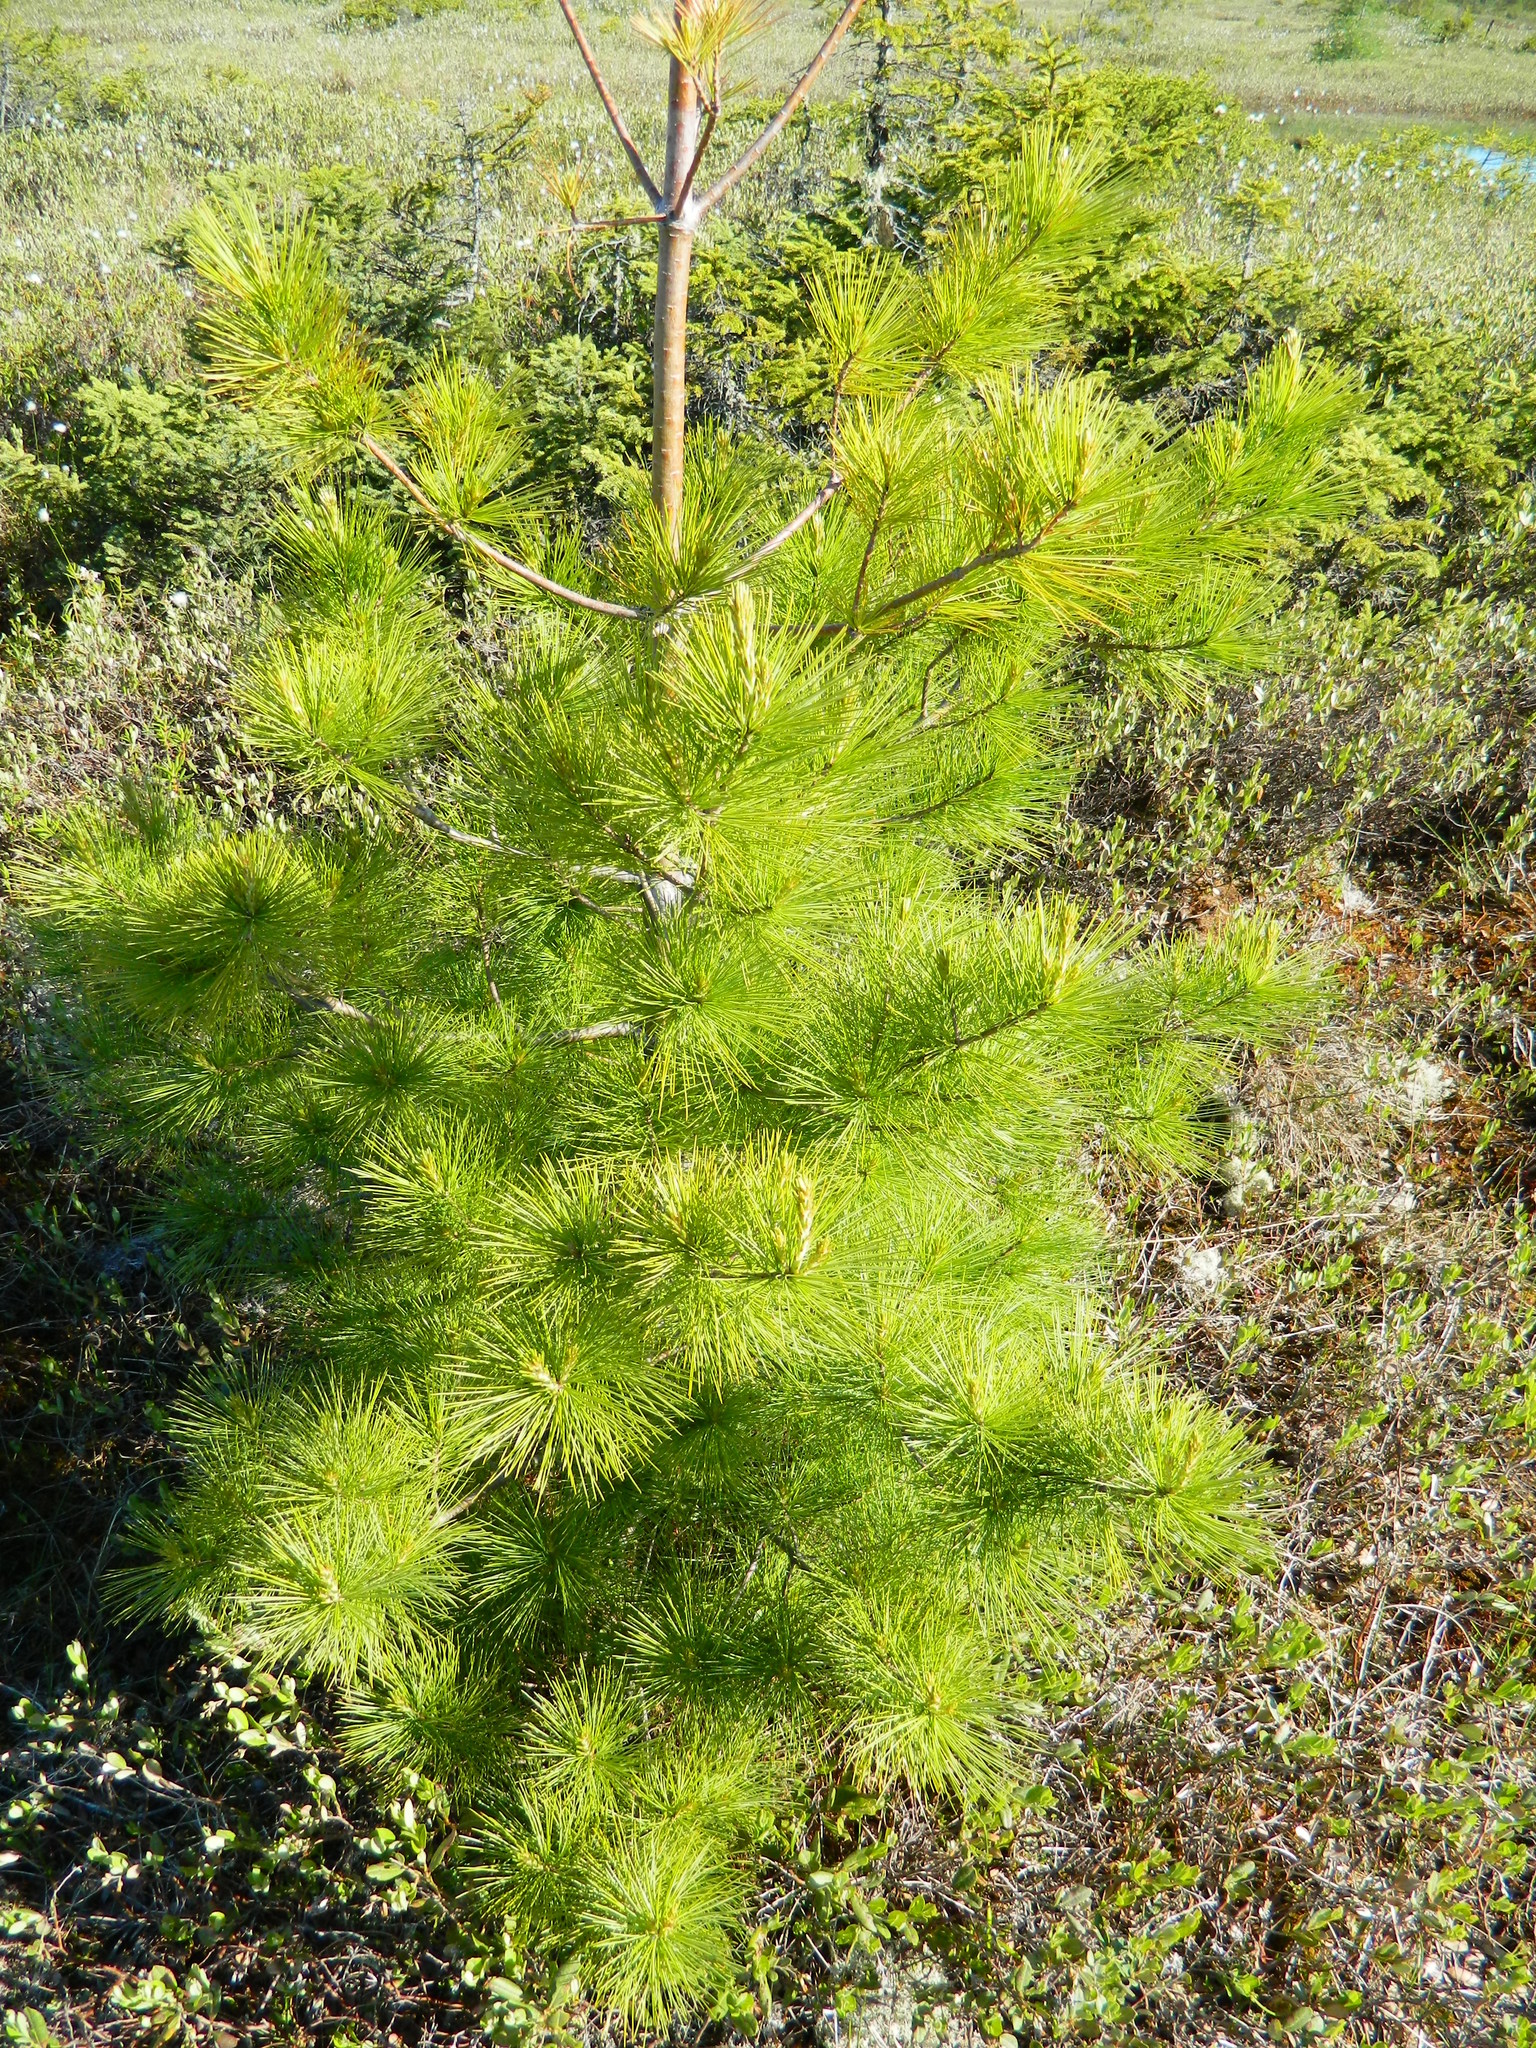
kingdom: Plantae
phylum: Tracheophyta
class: Pinopsida
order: Pinales
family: Pinaceae
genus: Pinus
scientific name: Pinus strobus
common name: Weymouth pine
